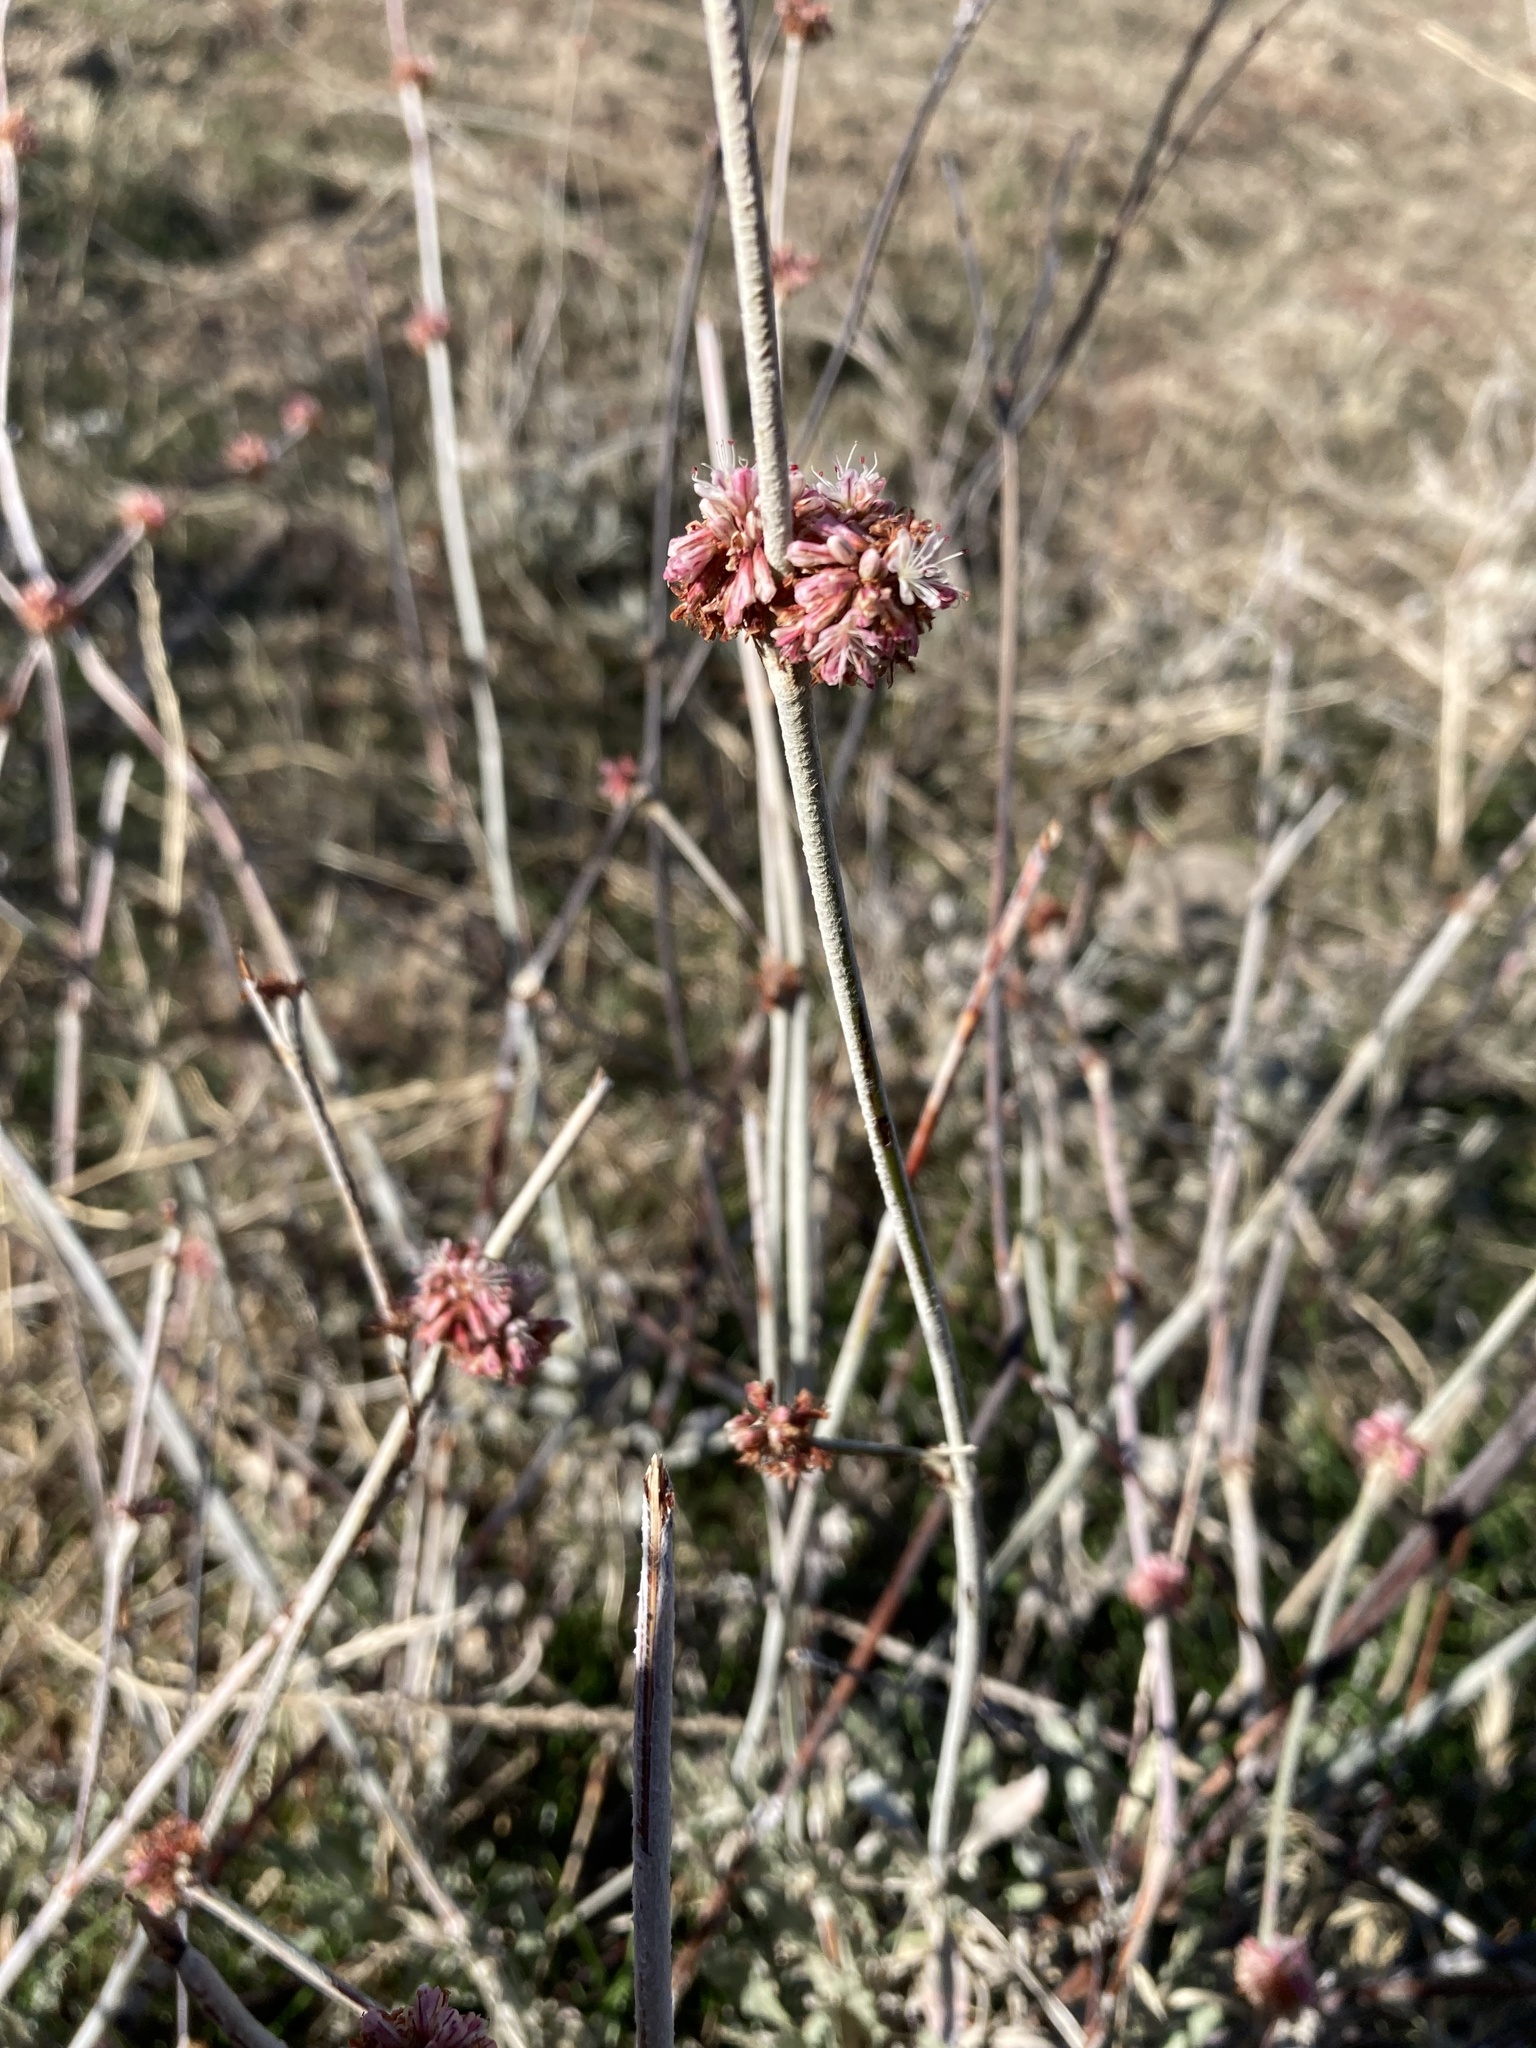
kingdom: Plantae
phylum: Tracheophyta
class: Magnoliopsida
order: Caryophyllales
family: Polygonaceae
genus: Eriogonum
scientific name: Eriogonum elongatum
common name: Long-stem wild buckwheat
